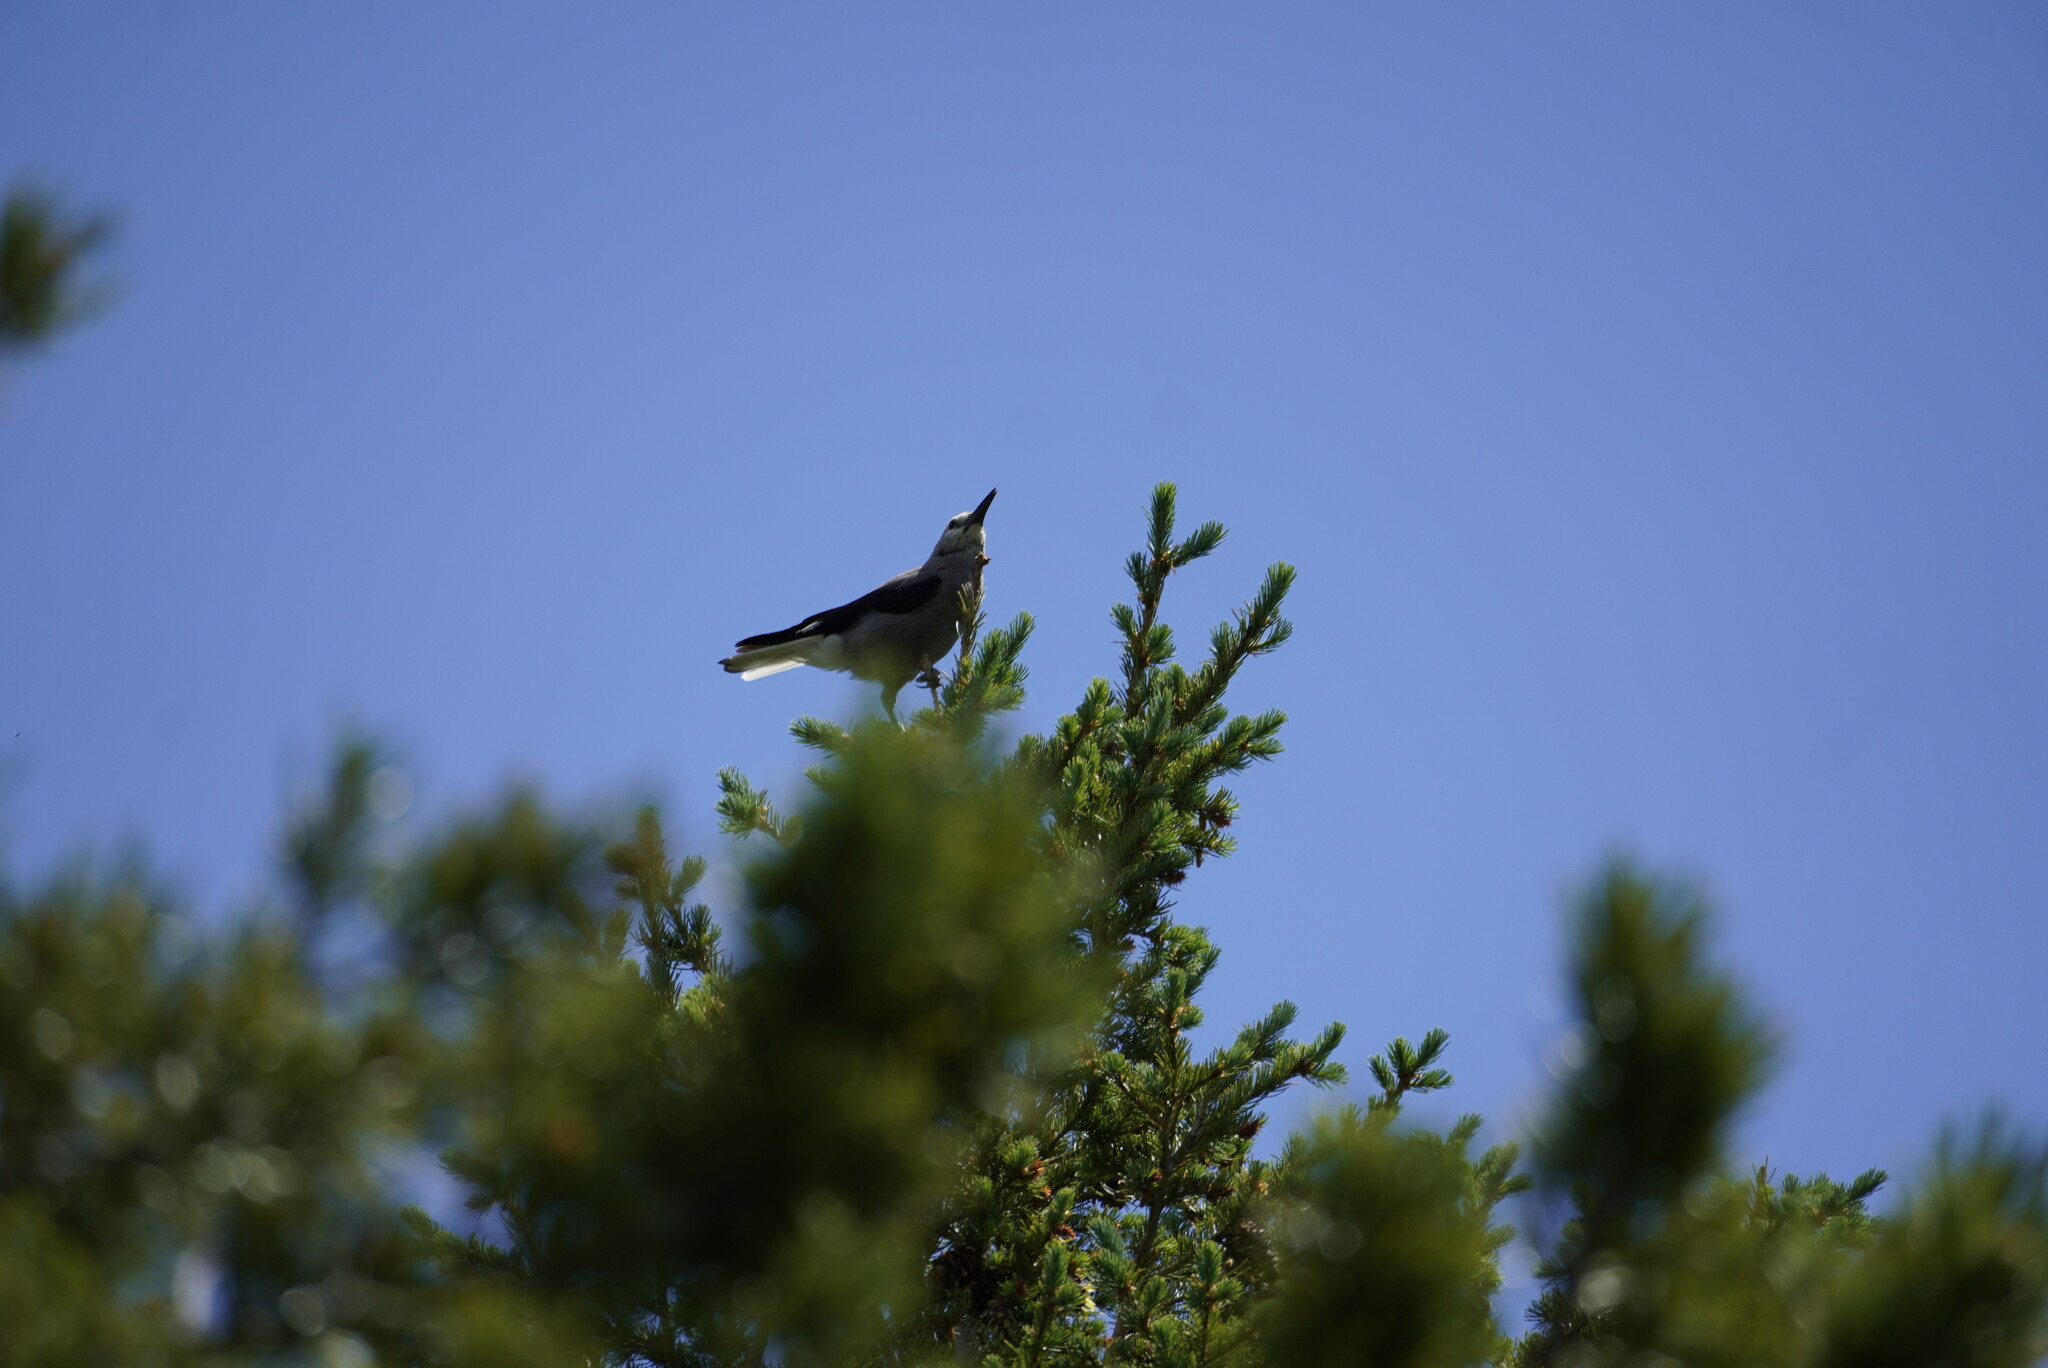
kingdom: Animalia
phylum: Chordata
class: Aves
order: Passeriformes
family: Corvidae
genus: Nucifraga
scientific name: Nucifraga columbiana
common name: Clark's nutcracker
